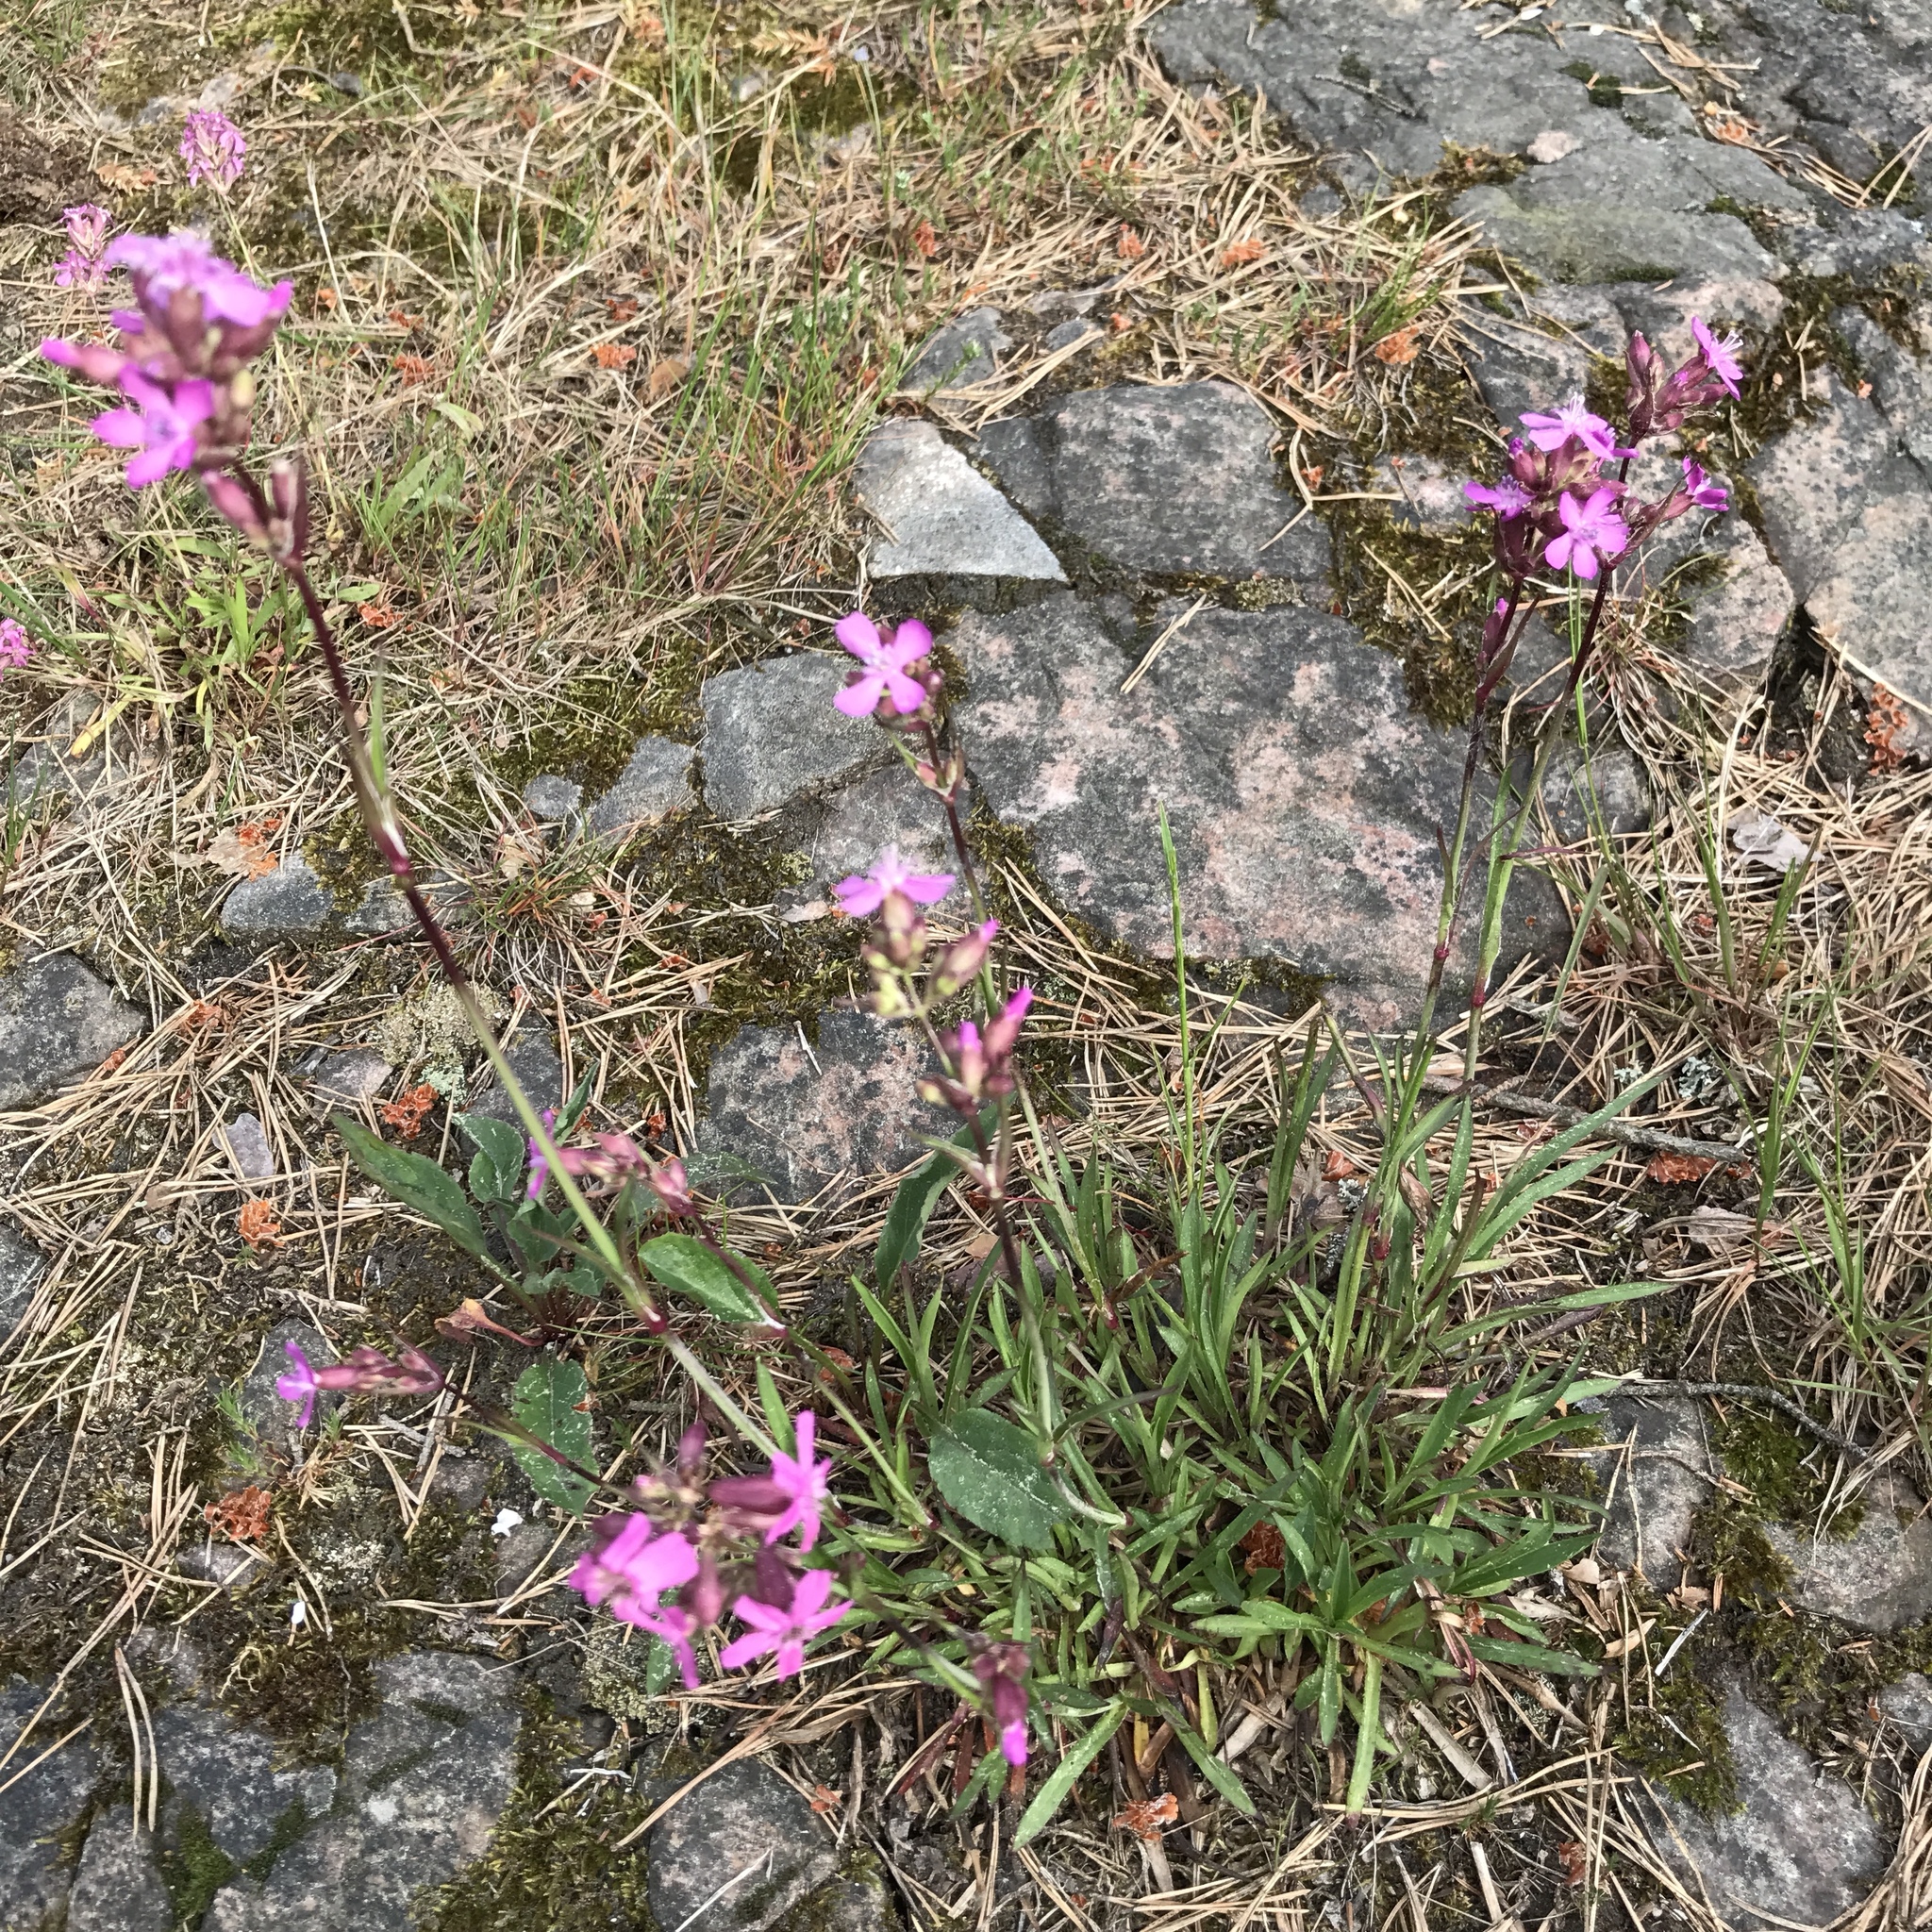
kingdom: Plantae
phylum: Tracheophyta
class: Magnoliopsida
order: Caryophyllales
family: Caryophyllaceae
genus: Viscaria
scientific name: Viscaria vulgaris
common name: Clammy campion
